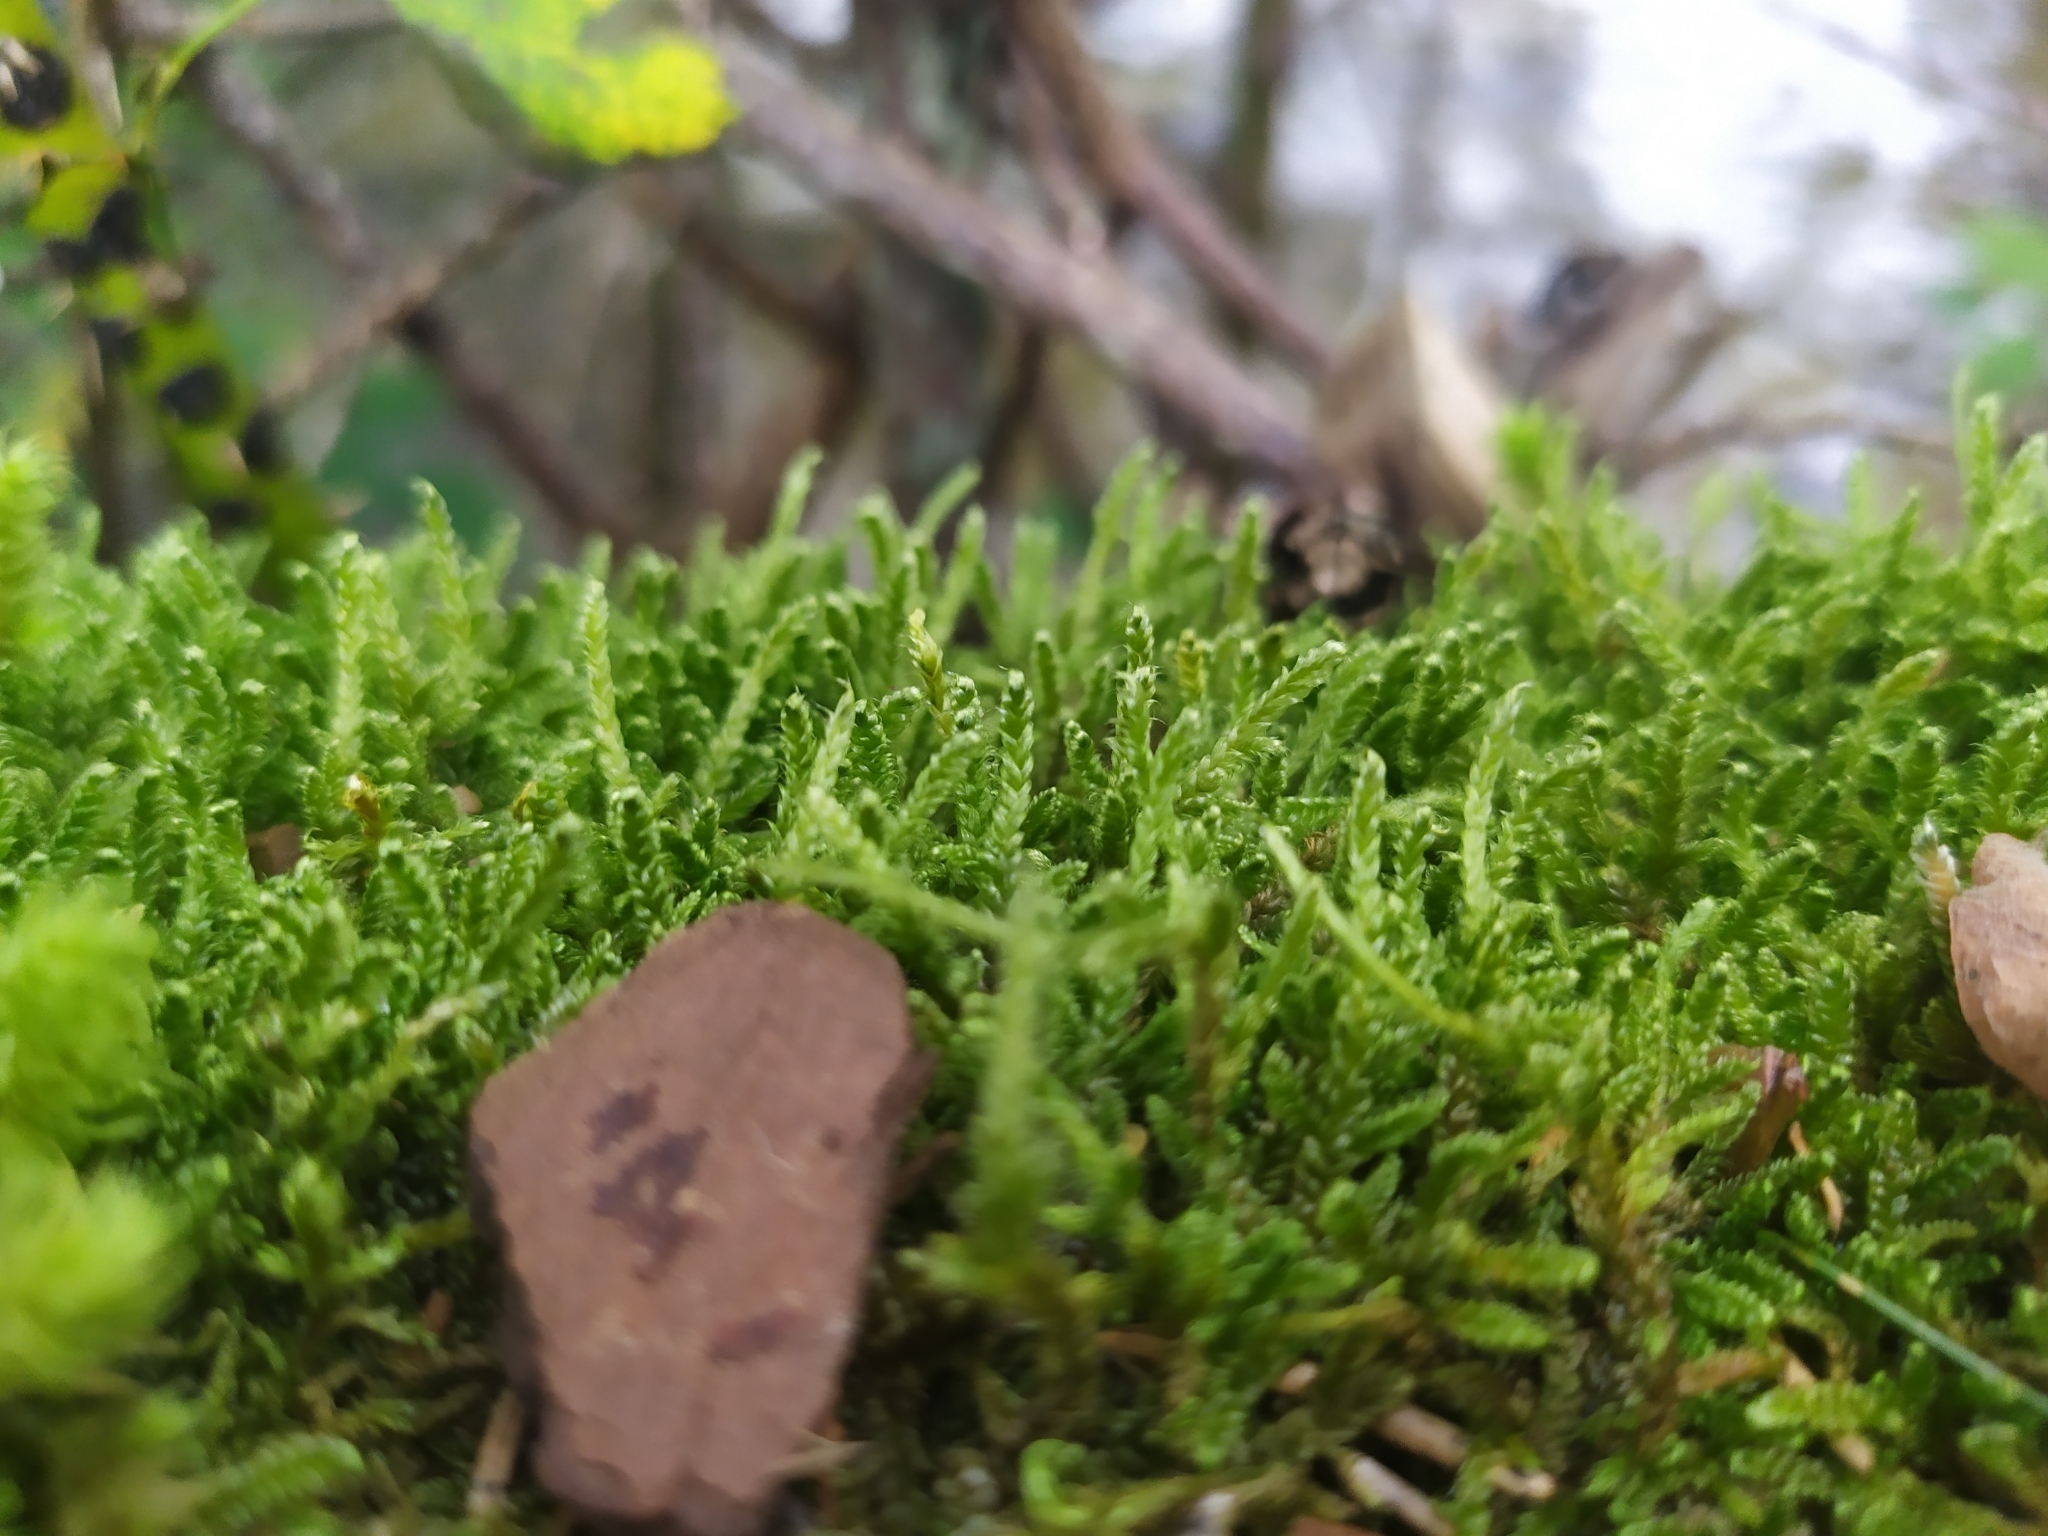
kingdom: Plantae
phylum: Bryophyta
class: Bryopsida
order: Hypnales
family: Hypnaceae
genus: Hypnum
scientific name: Hypnum cupressiforme
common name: Cypress-leaved plait-moss
